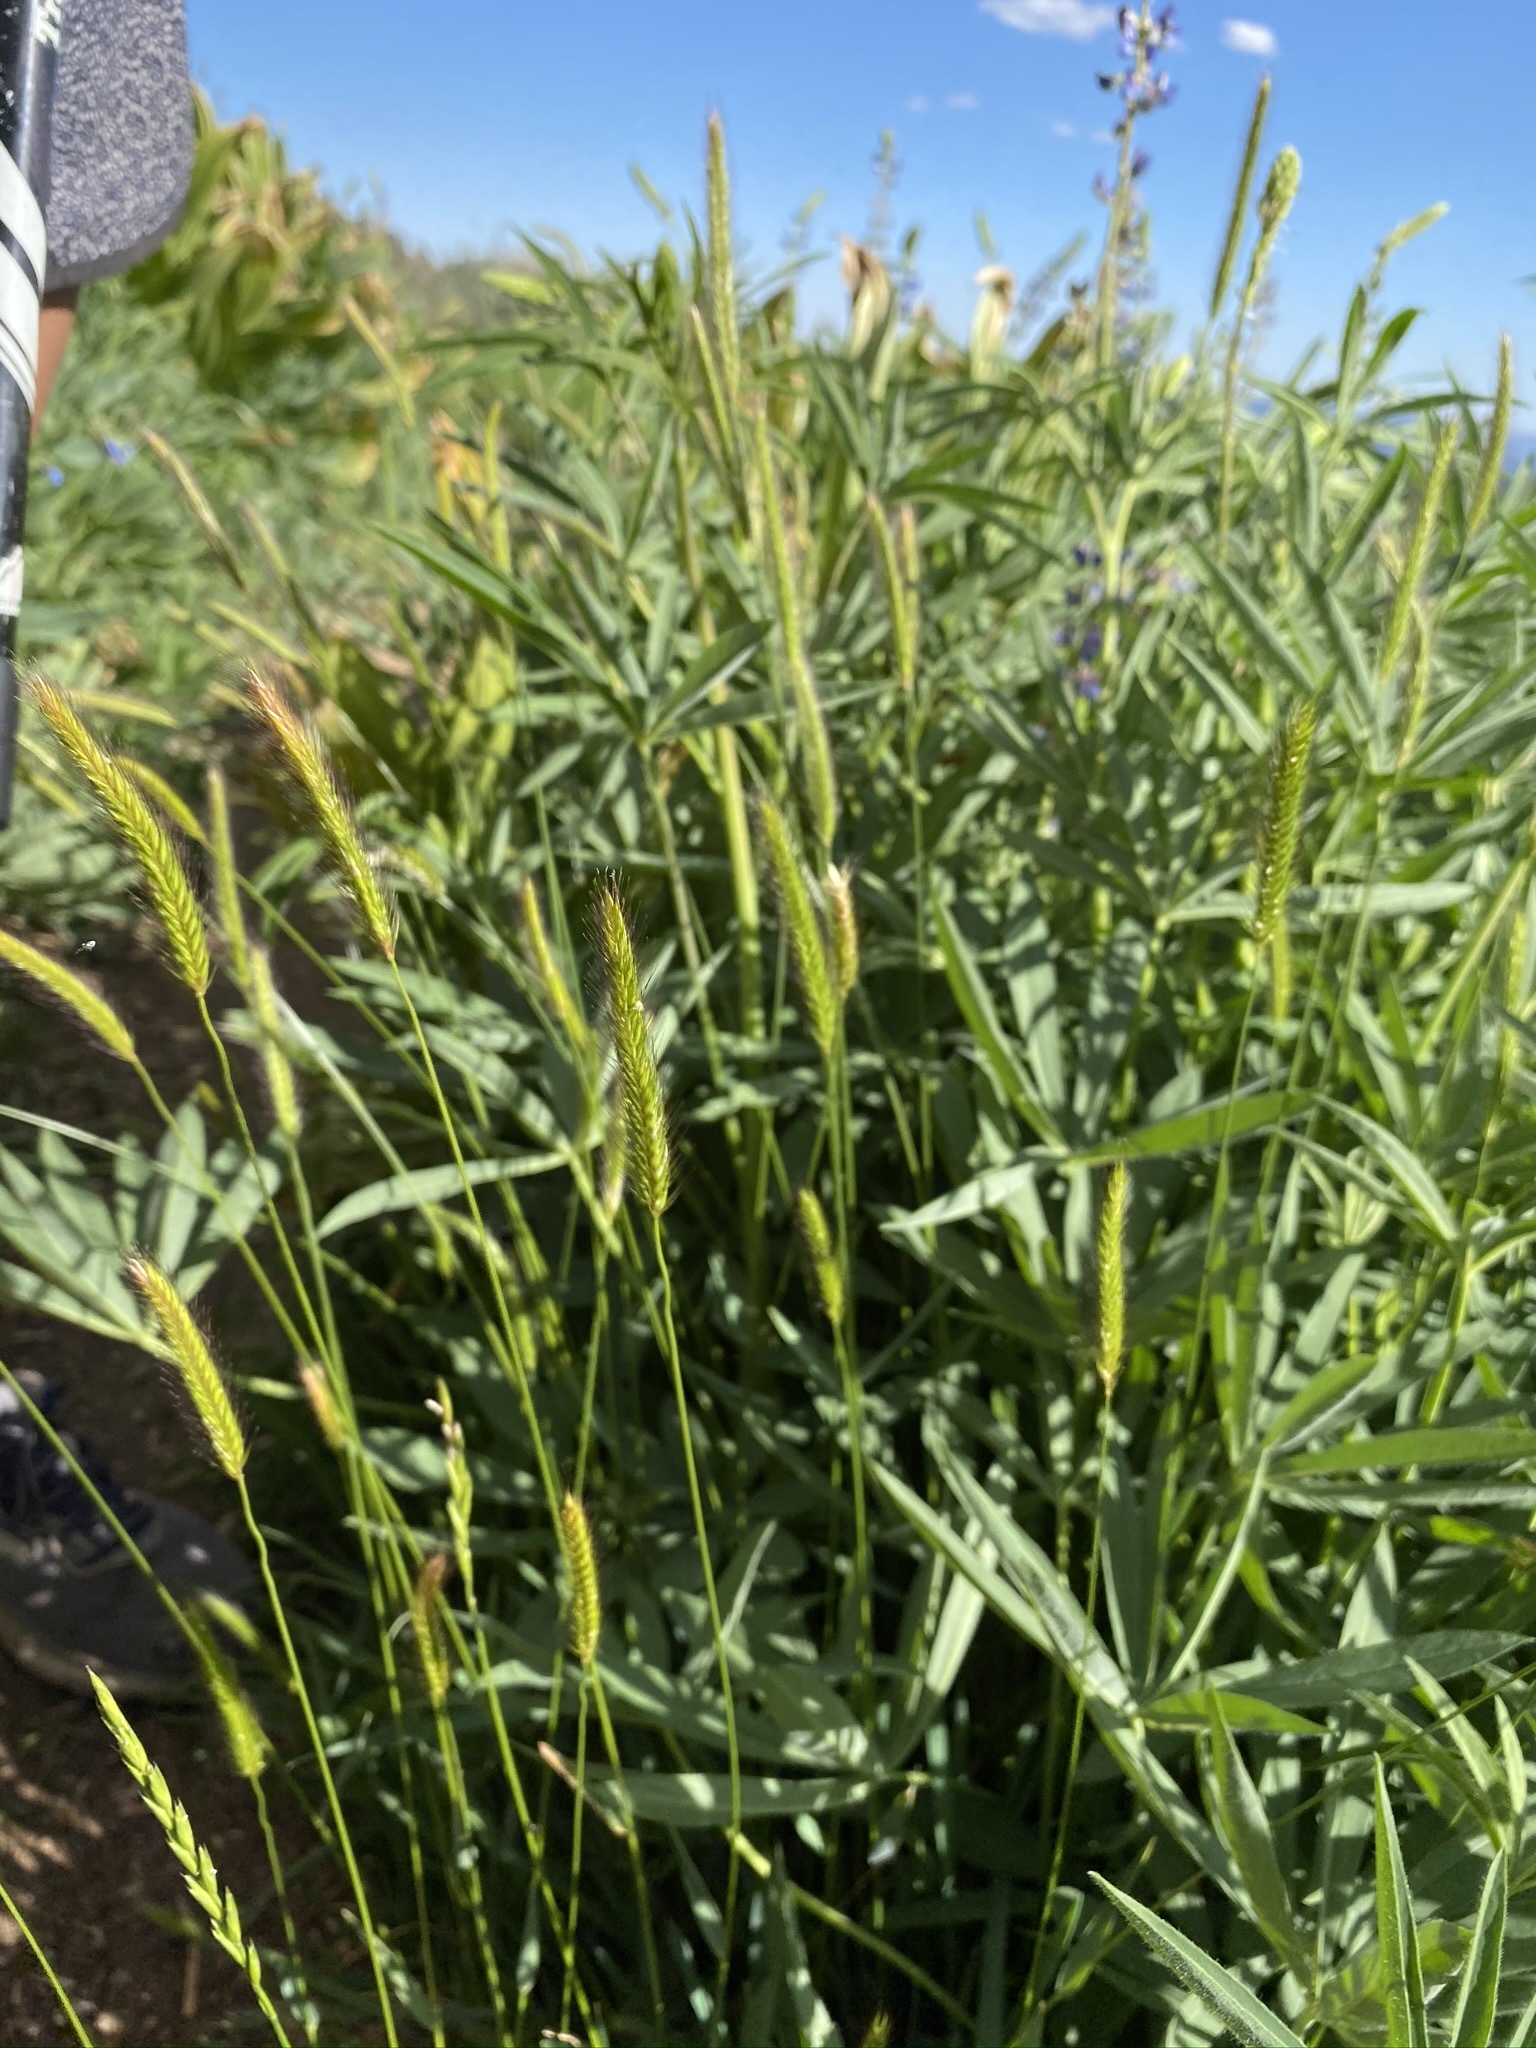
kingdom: Plantae
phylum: Tracheophyta
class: Liliopsida
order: Poales
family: Poaceae
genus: Hordeum
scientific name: Hordeum brachyantherum
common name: Meadow barley
